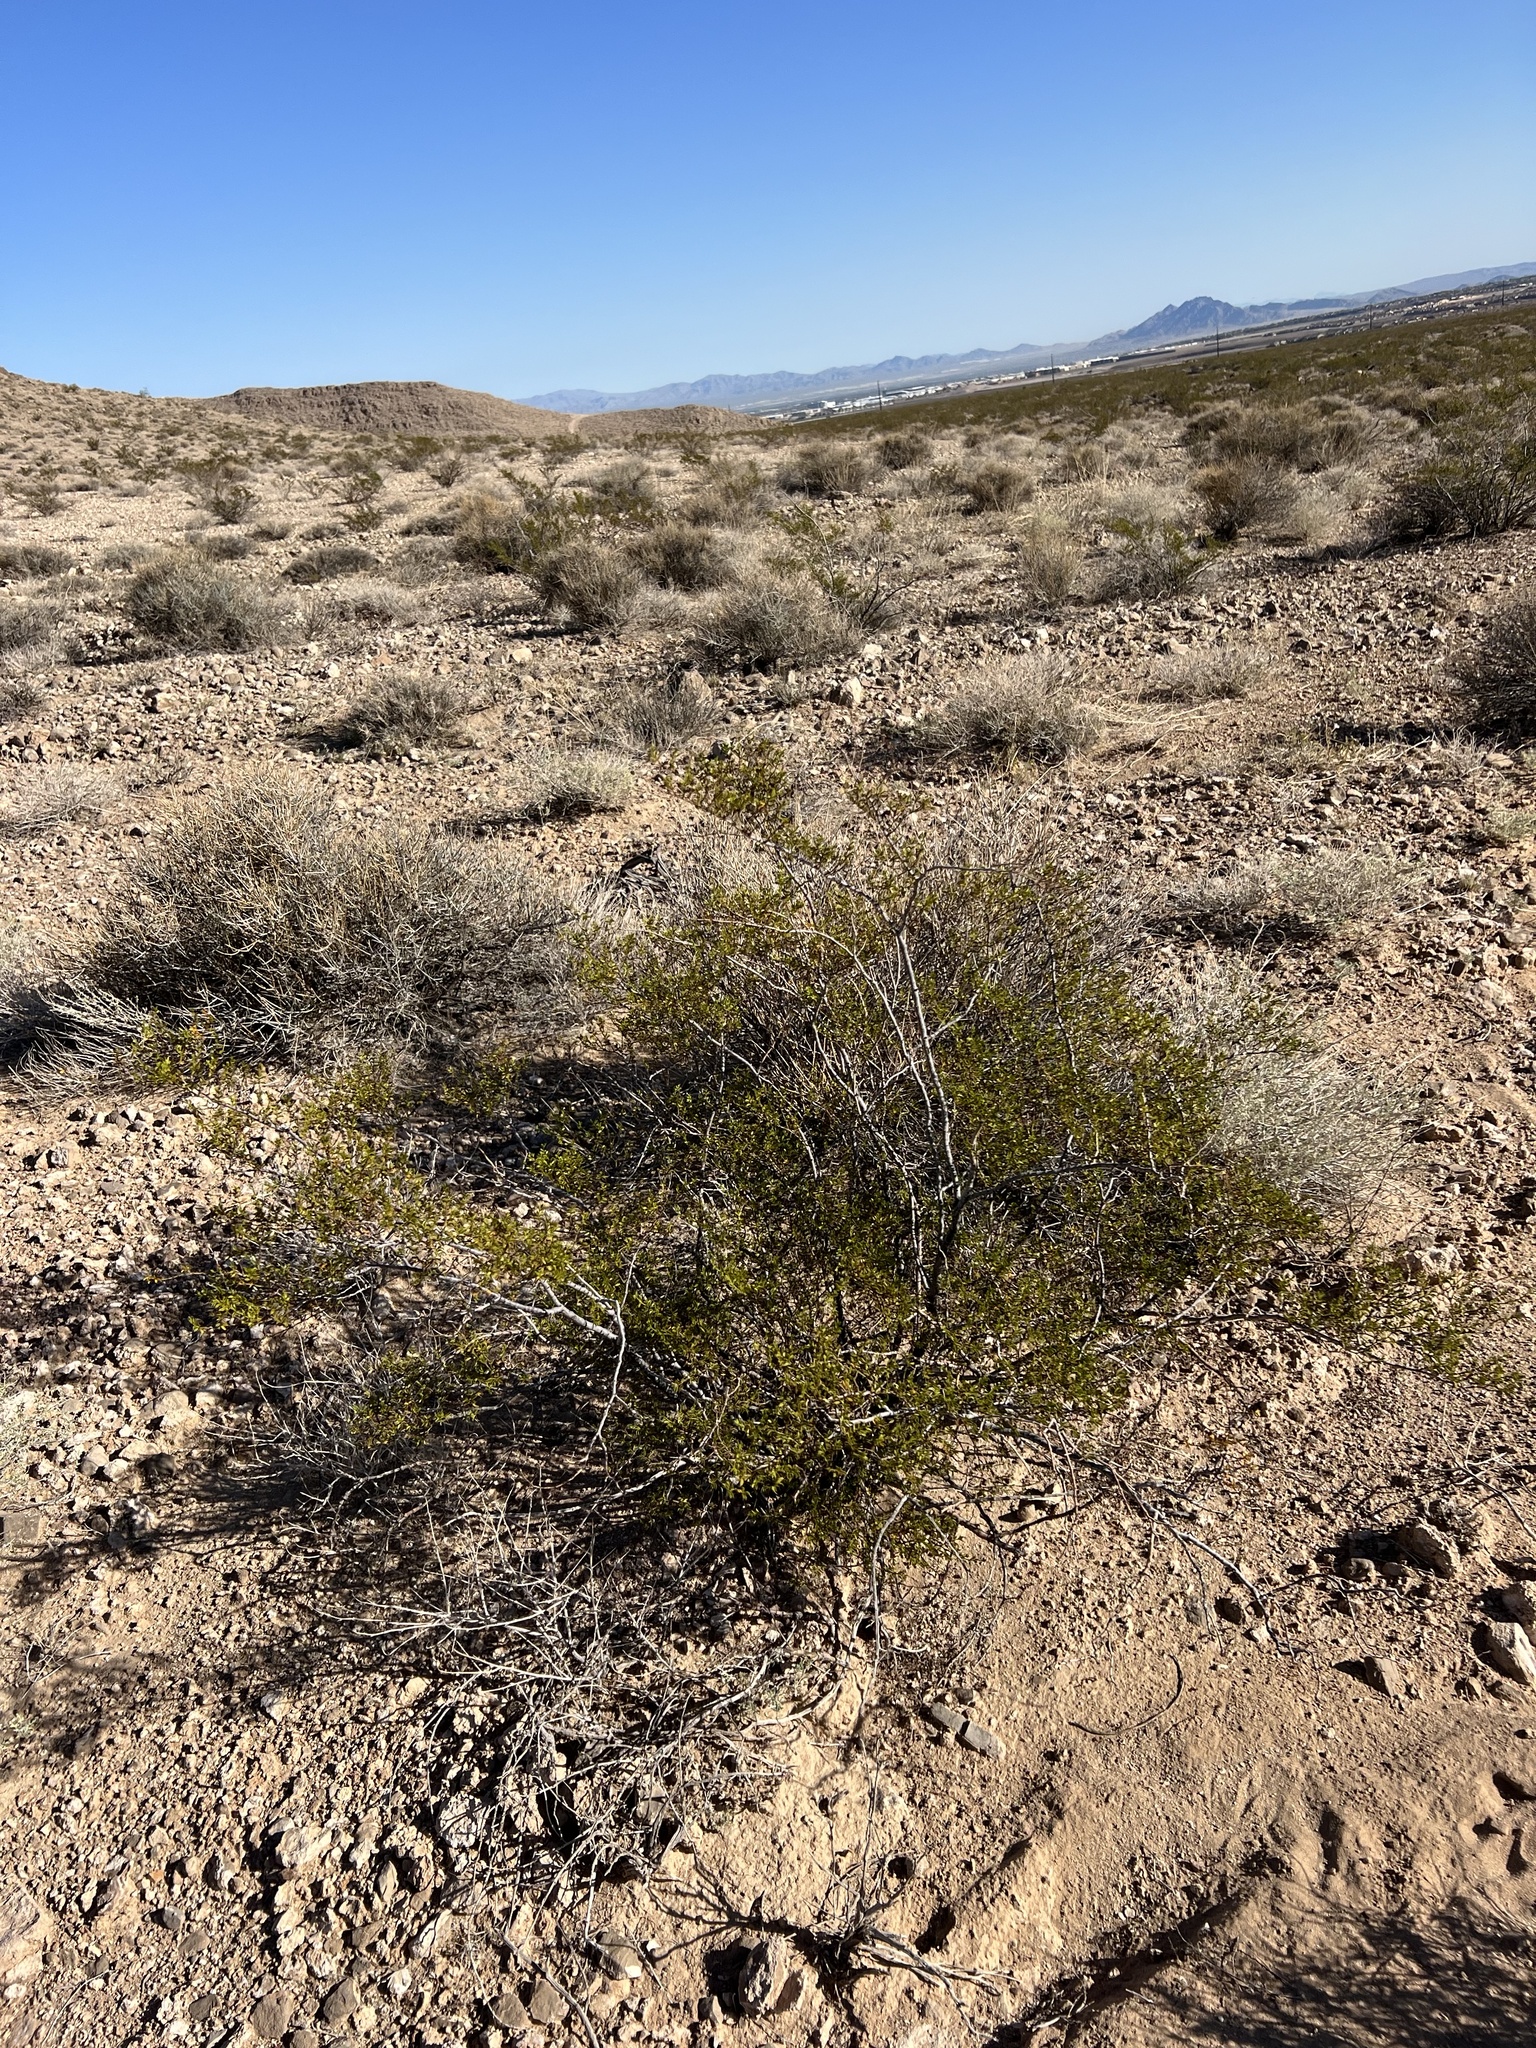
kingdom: Plantae
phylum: Tracheophyta
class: Magnoliopsida
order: Zygophyllales
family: Zygophyllaceae
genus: Larrea
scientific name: Larrea tridentata
